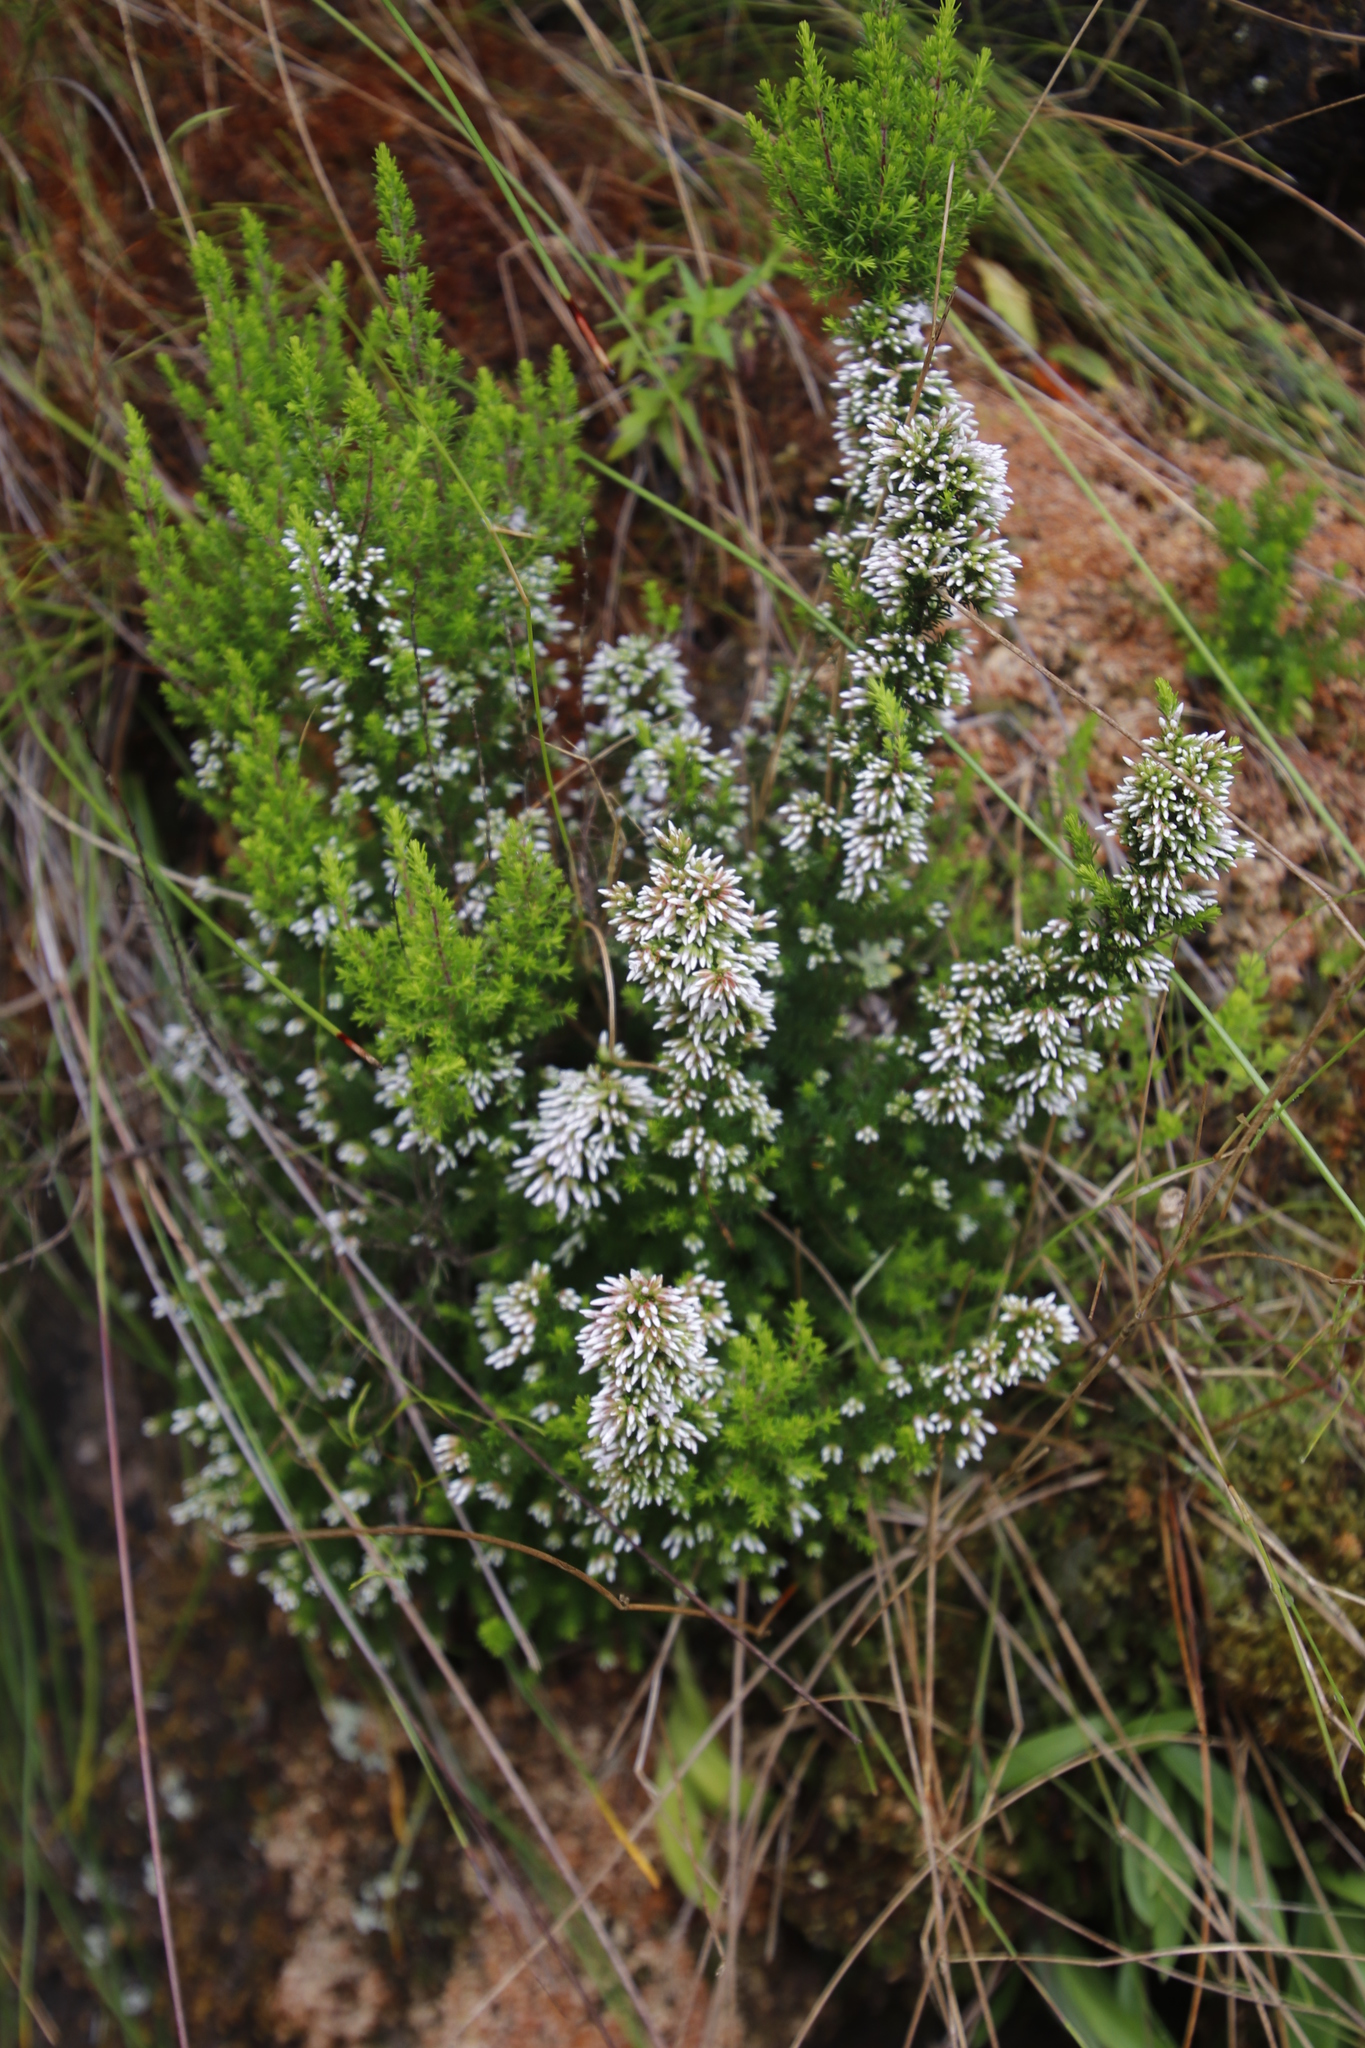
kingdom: Plantae
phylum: Tracheophyta
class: Magnoliopsida
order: Ericales
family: Ericaceae
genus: Erica
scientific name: Erica
